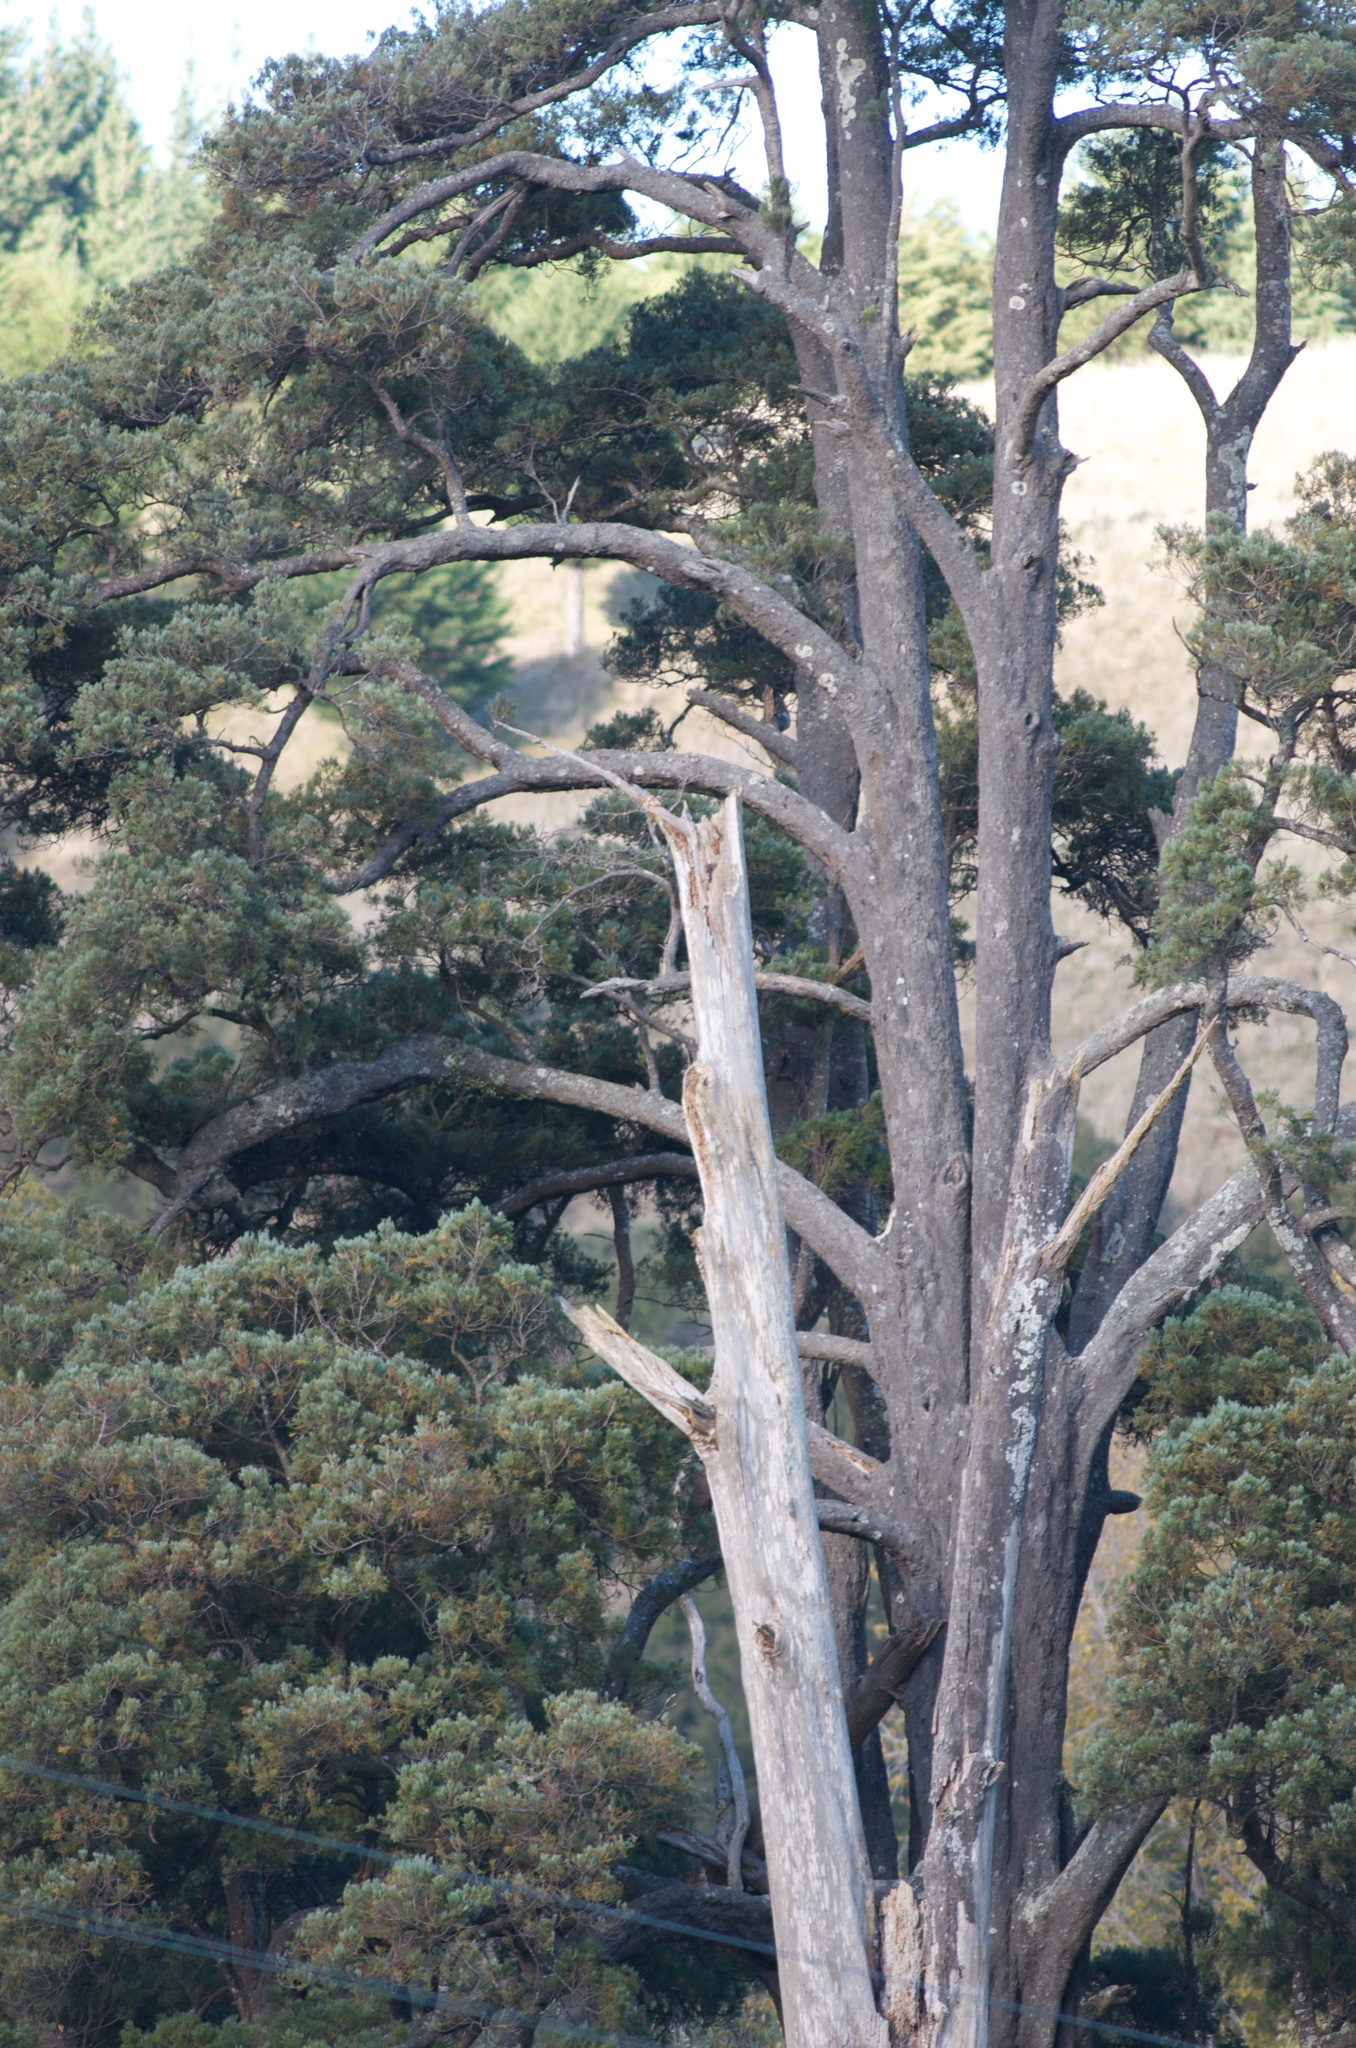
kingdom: Plantae
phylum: Tracheophyta
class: Pinopsida
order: Pinales
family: Podocarpaceae
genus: Dacrycarpus
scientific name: Dacrycarpus dacrydioides
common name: White pine
